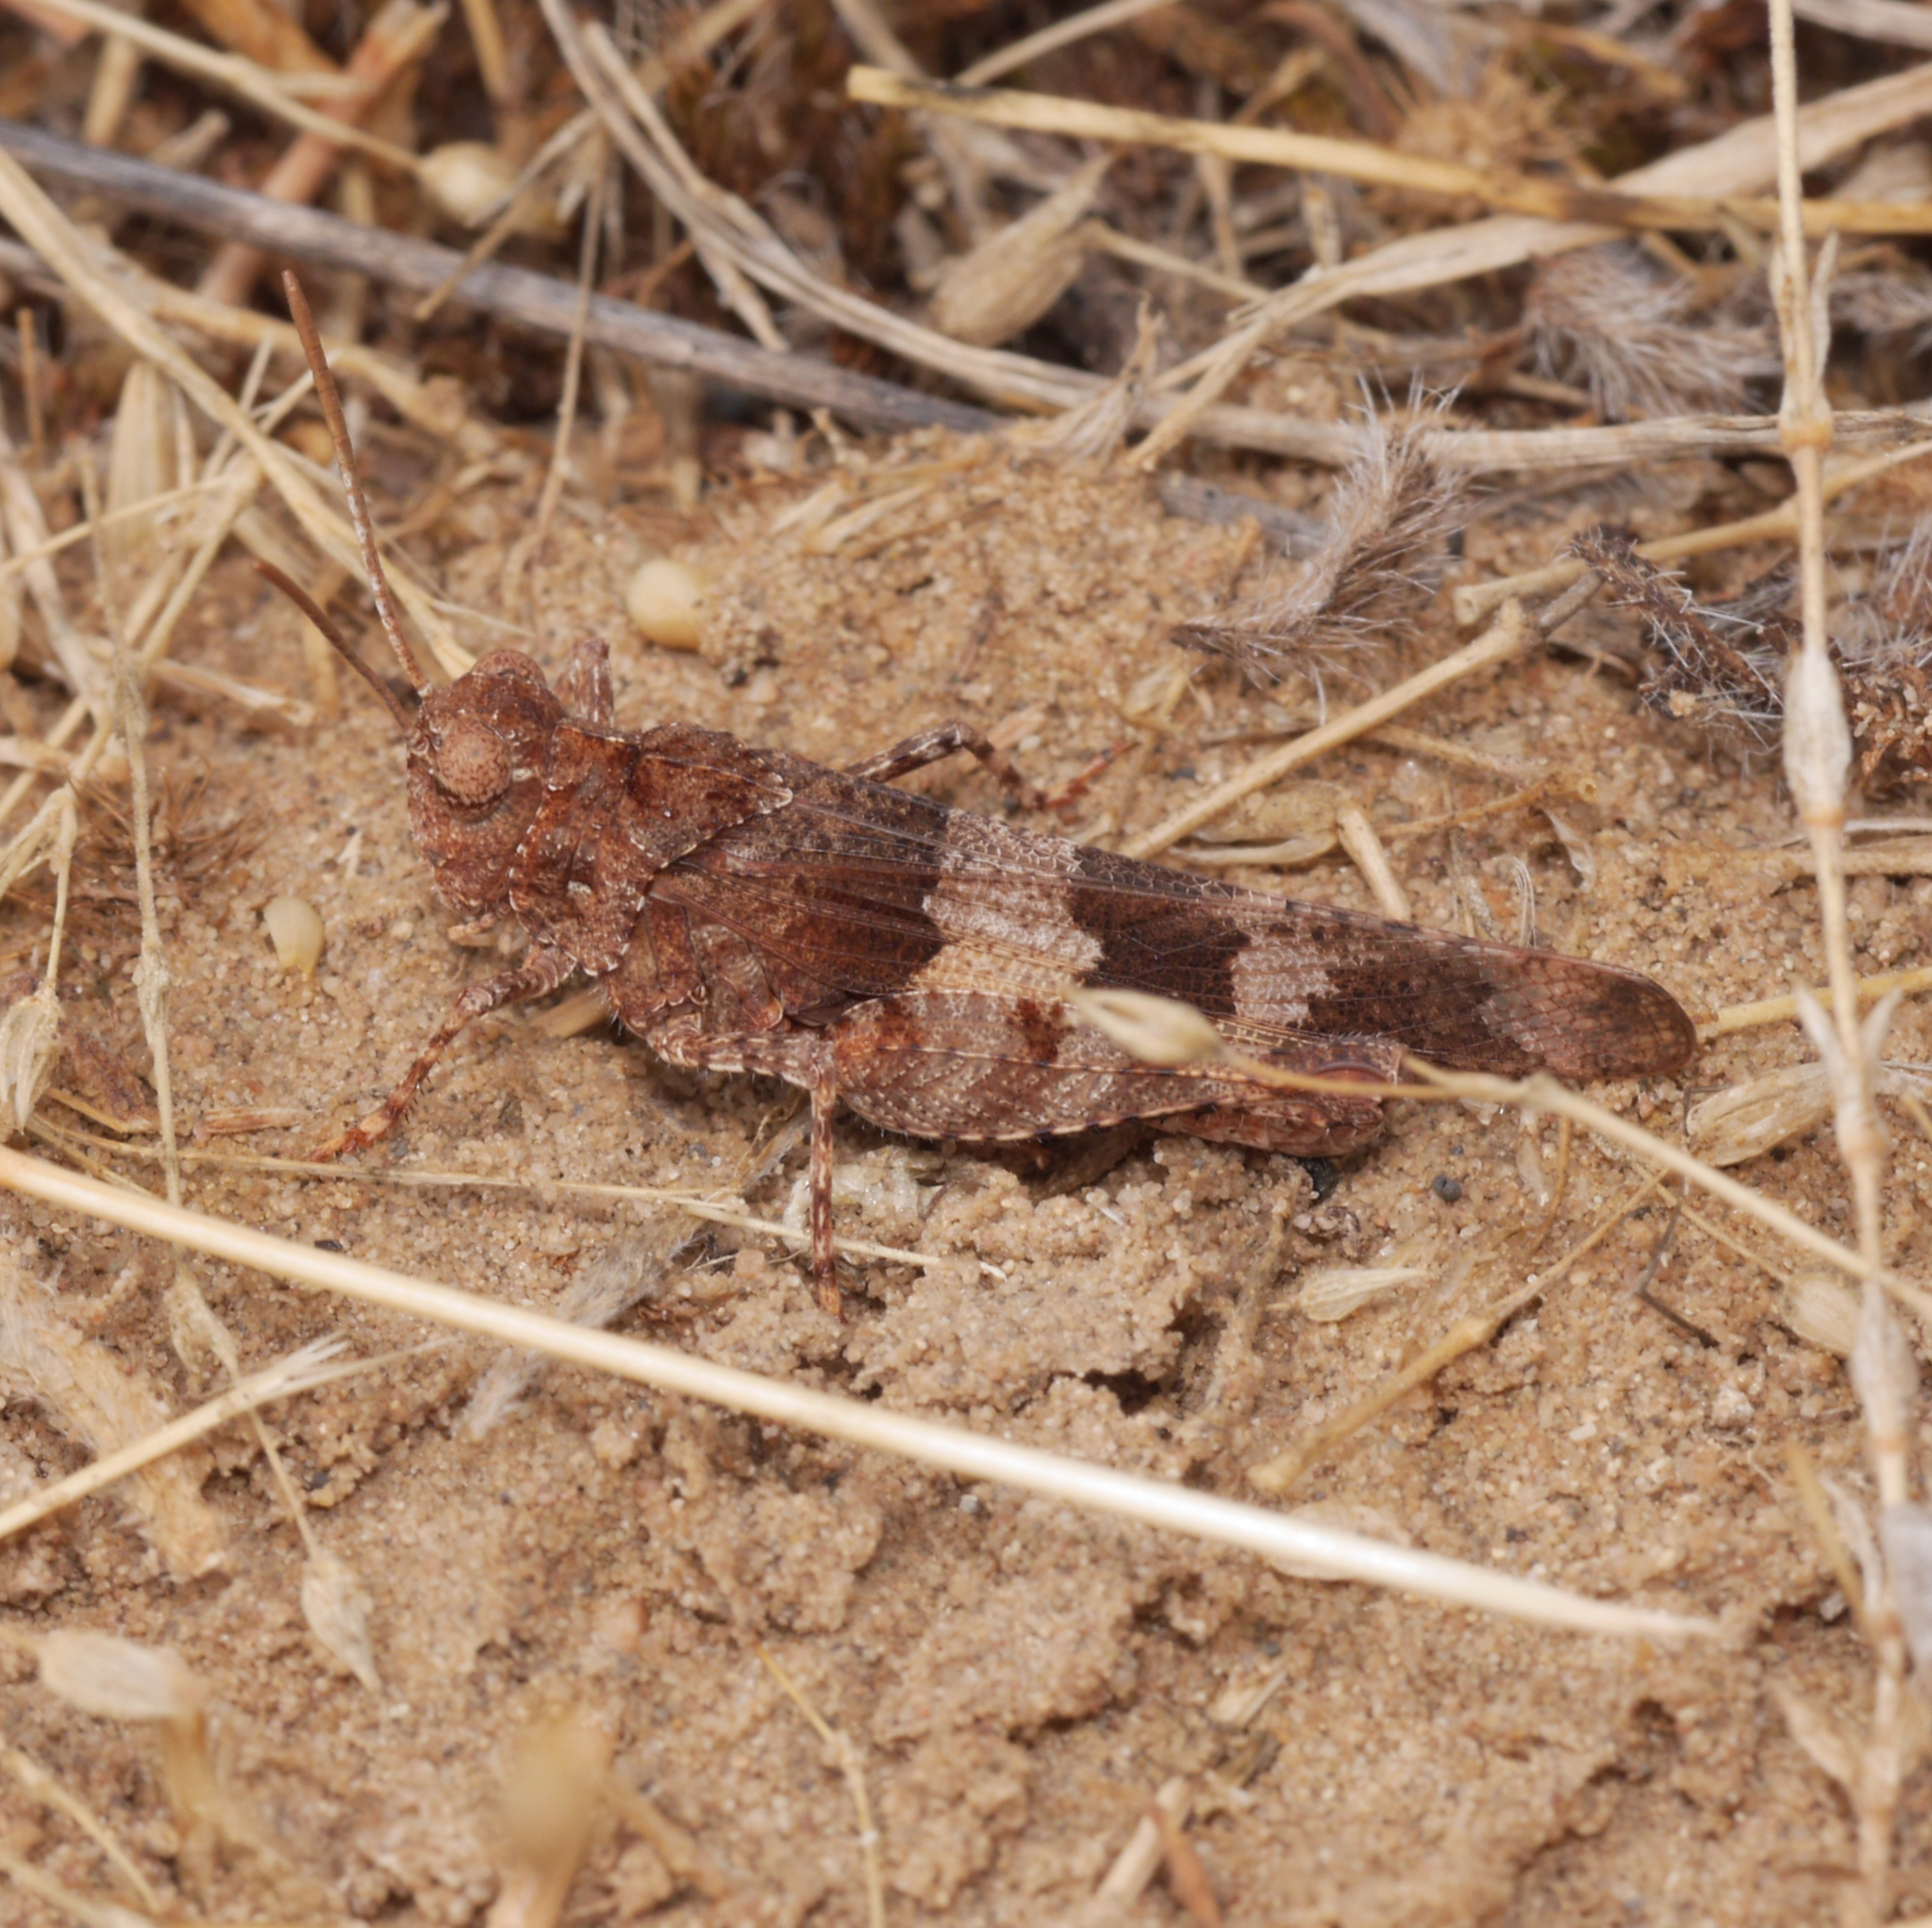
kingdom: Animalia
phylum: Arthropoda
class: Insecta
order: Orthoptera
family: Acrididae
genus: Oedipoda
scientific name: Oedipoda caerulescens
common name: Blue-winged grasshopper
